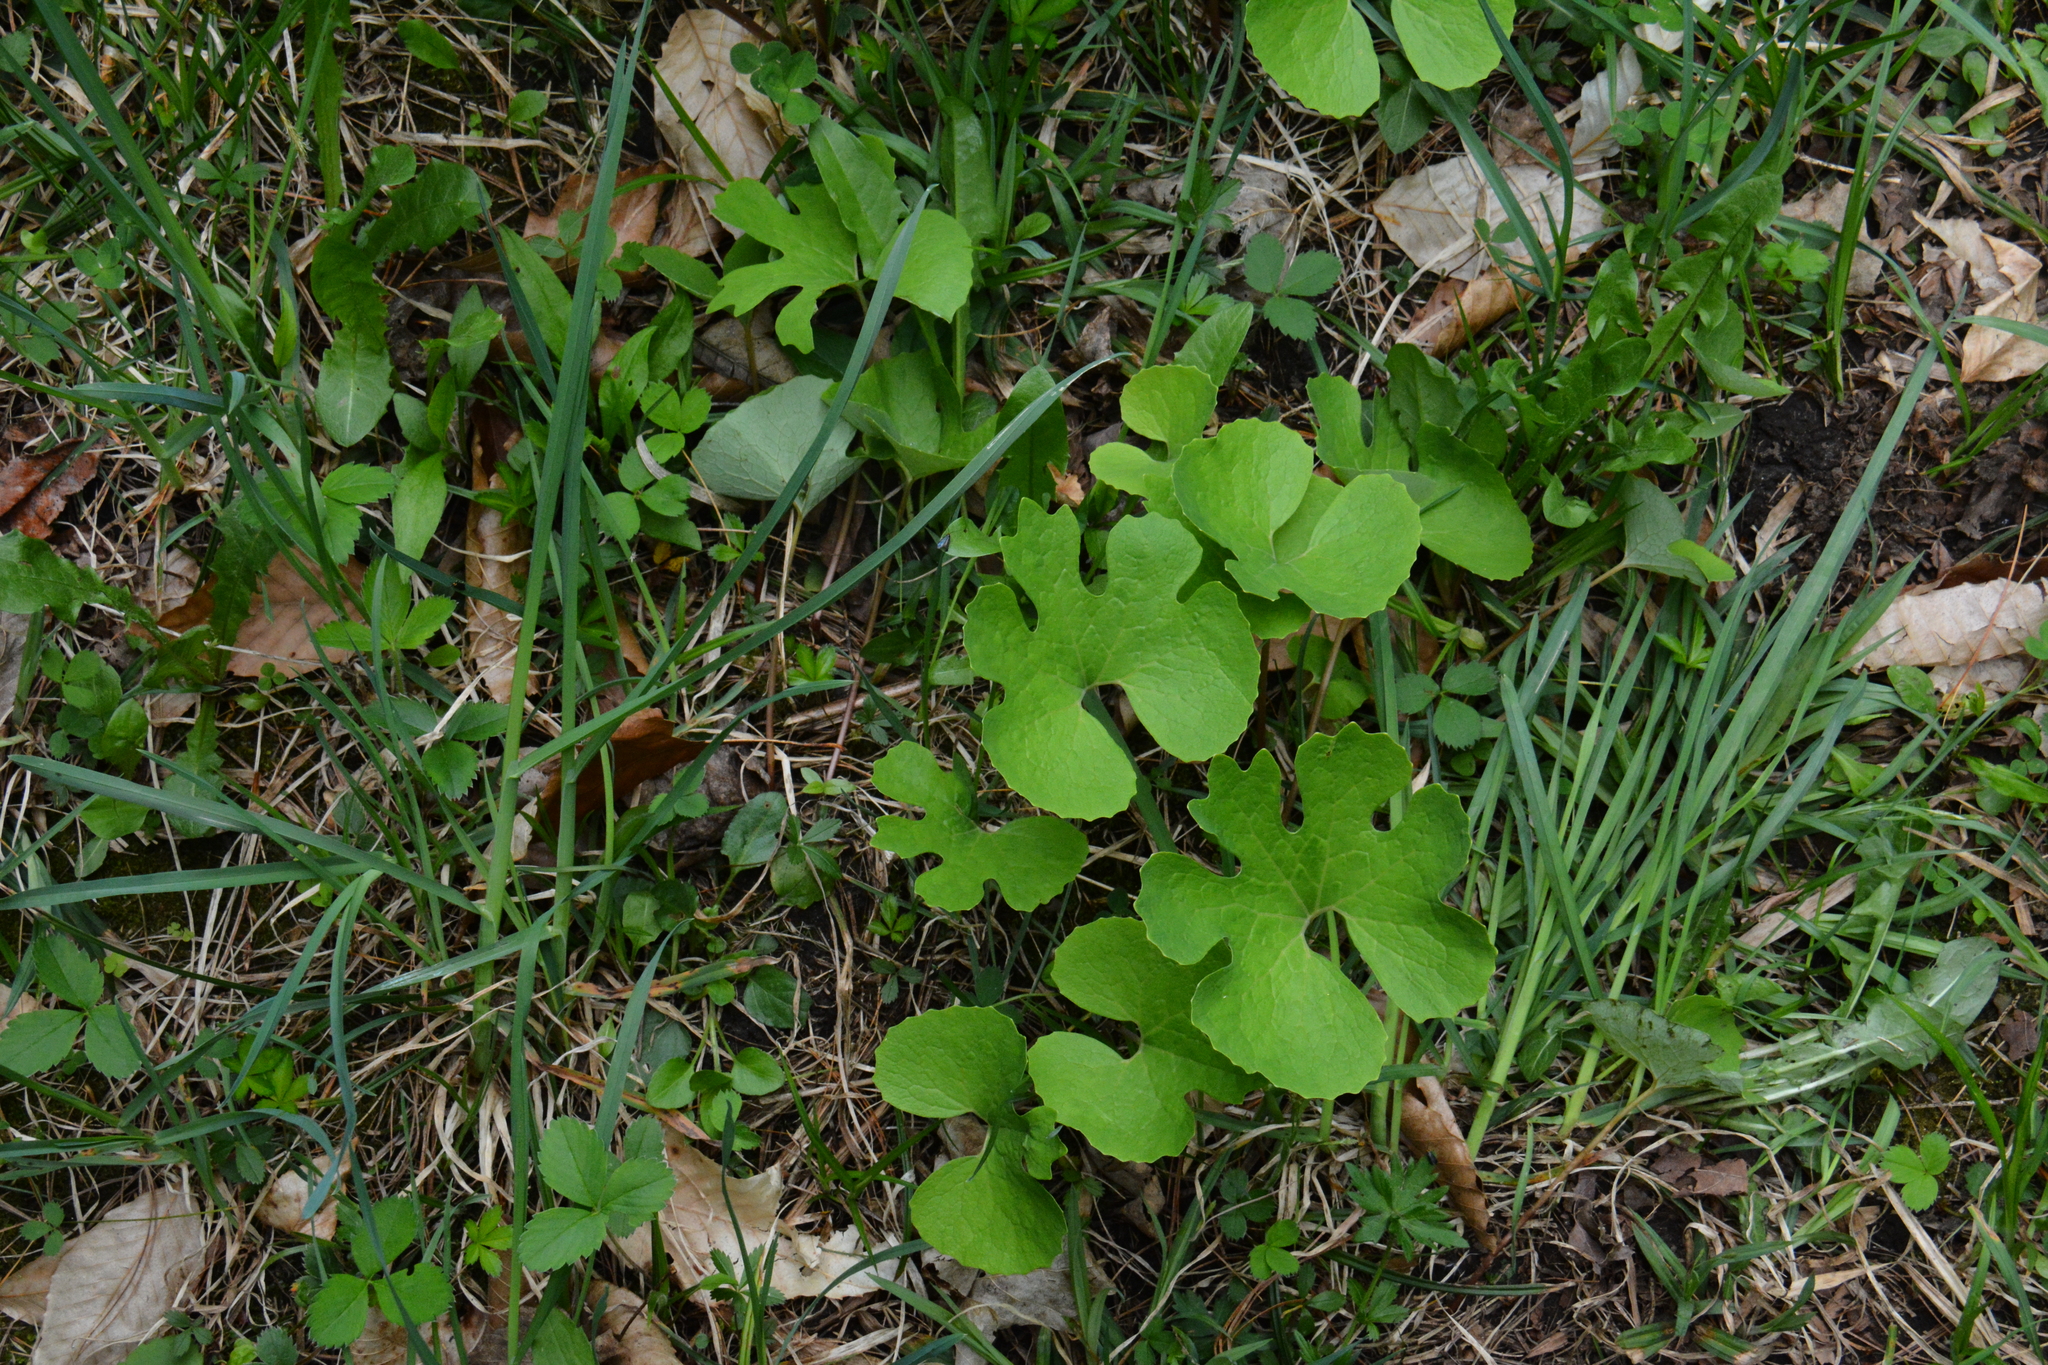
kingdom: Plantae
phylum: Tracheophyta
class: Magnoliopsida
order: Ranunculales
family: Papaveraceae
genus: Sanguinaria
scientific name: Sanguinaria canadensis
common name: Bloodroot
